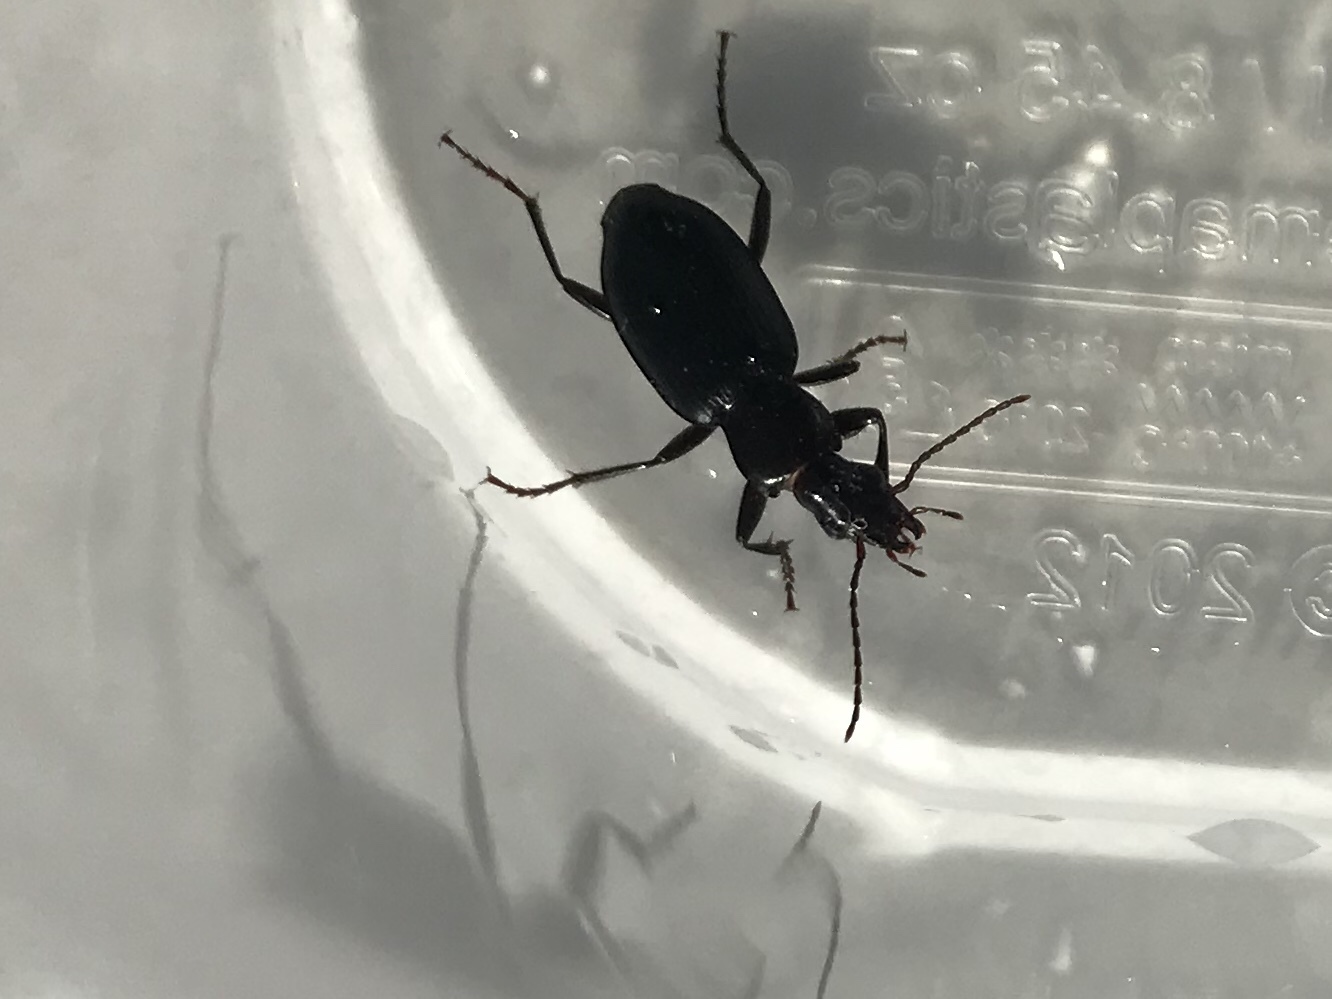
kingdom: Animalia
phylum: Arthropoda
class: Insecta
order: Coleoptera
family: Carabidae
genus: Laemostenus
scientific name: Laemostenus complanatus
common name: Cosmopolitan ground beetle
